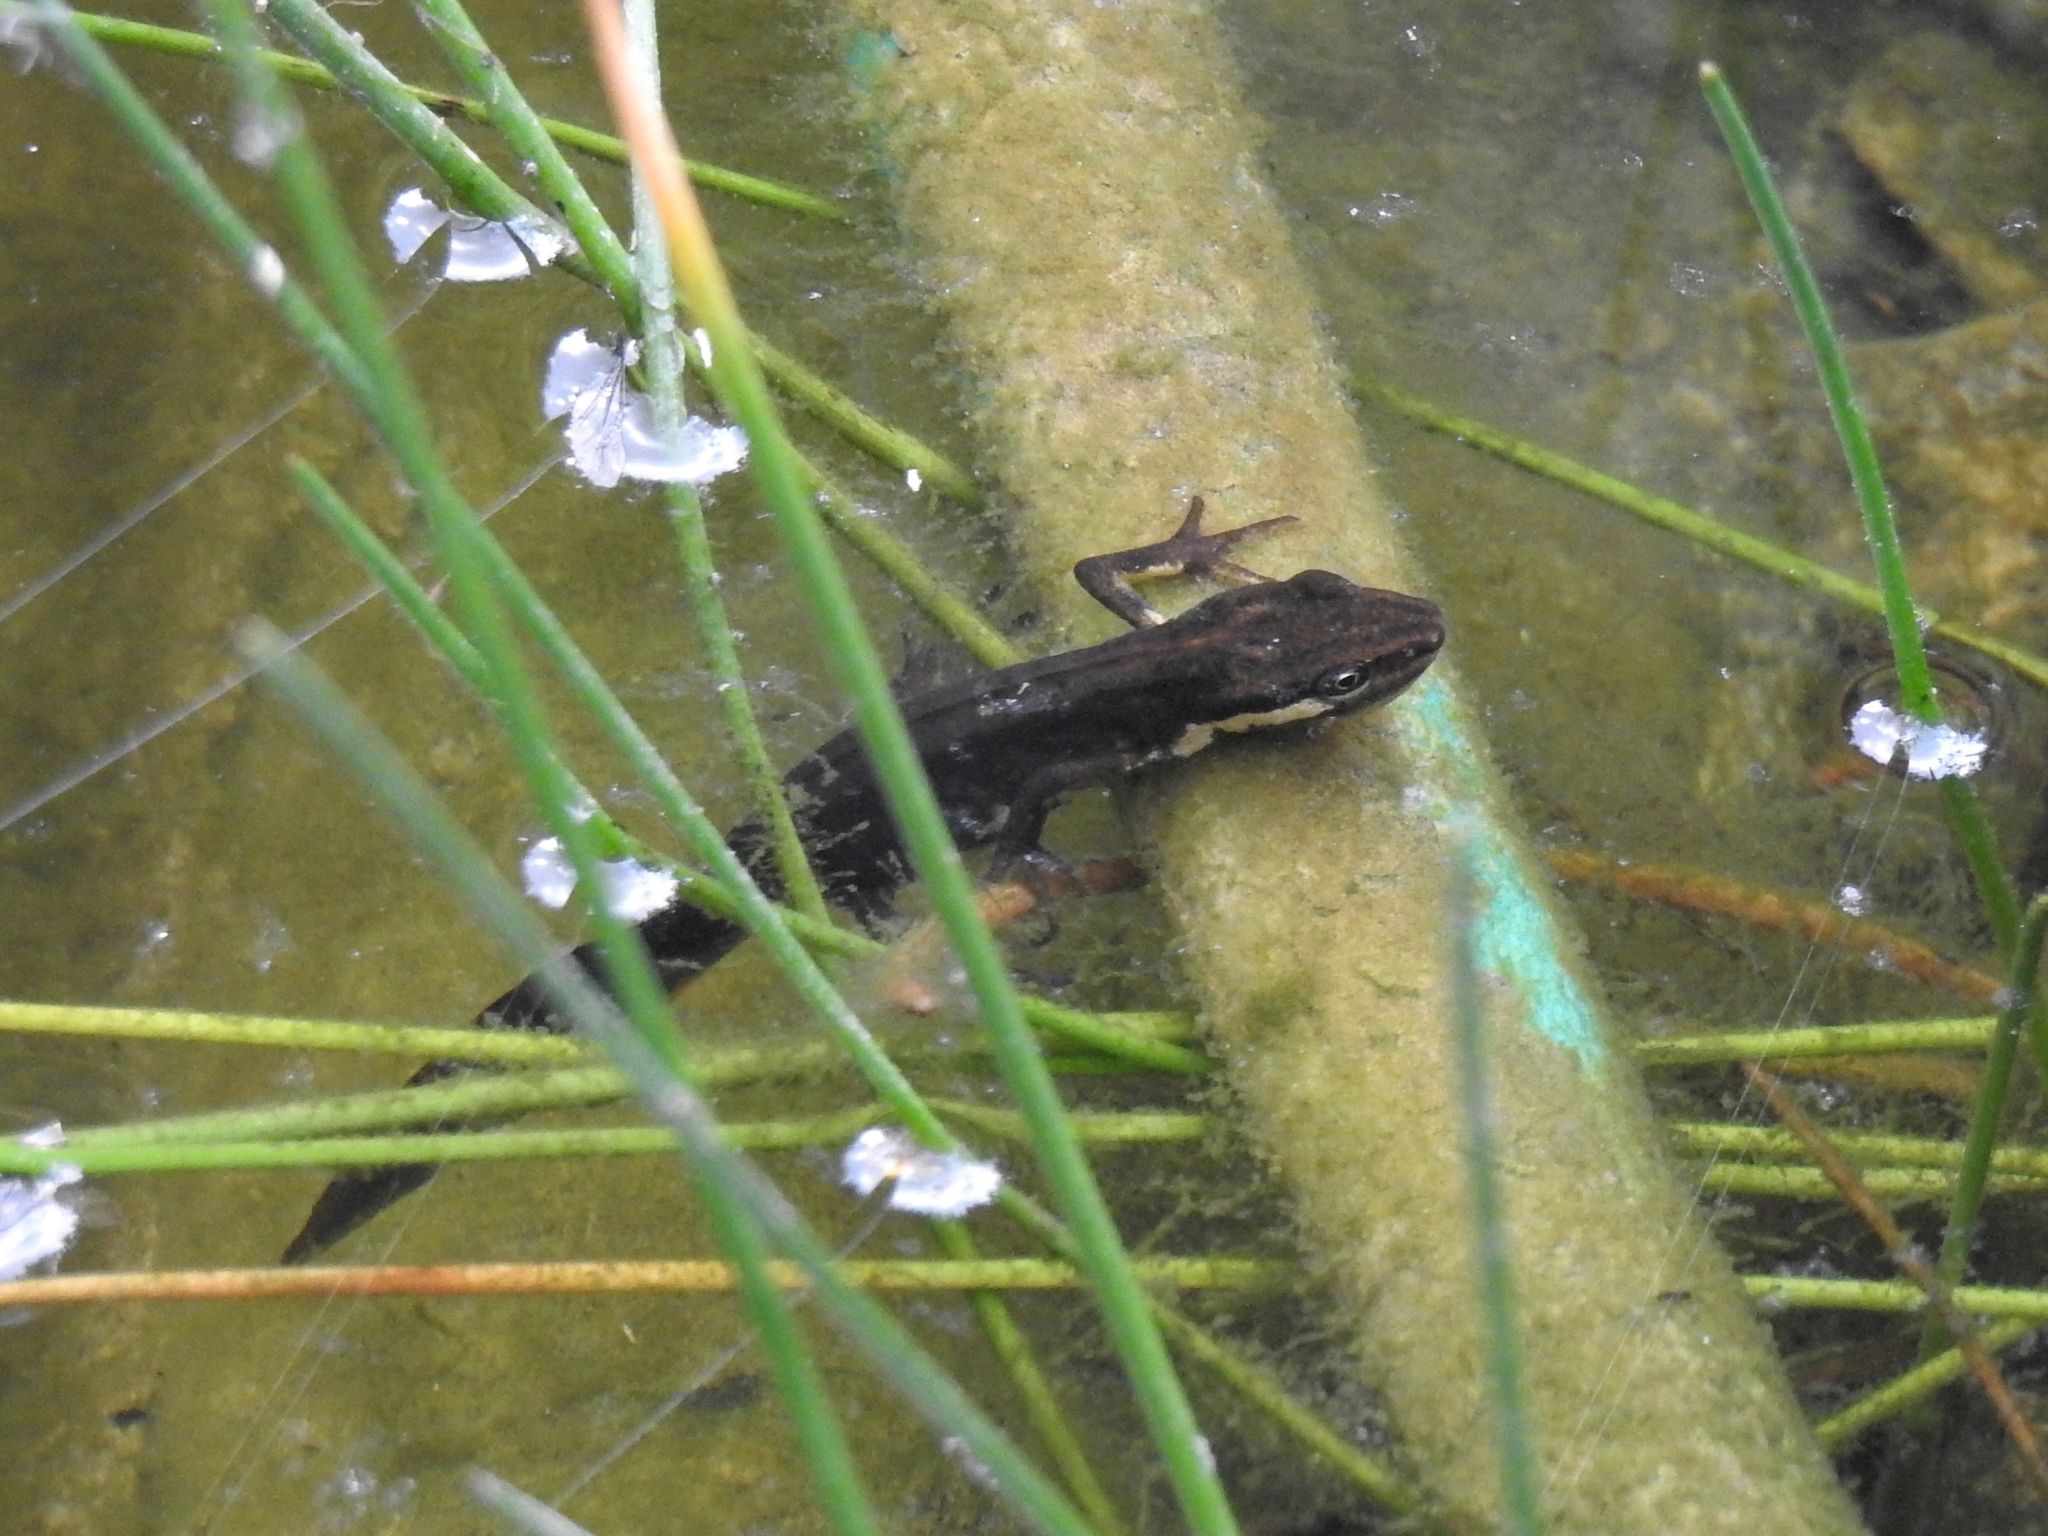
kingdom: Animalia
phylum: Chordata
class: Amphibia
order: Caudata
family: Salamandridae
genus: Lissotriton
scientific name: Lissotriton vulgaris
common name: Smooth newt
